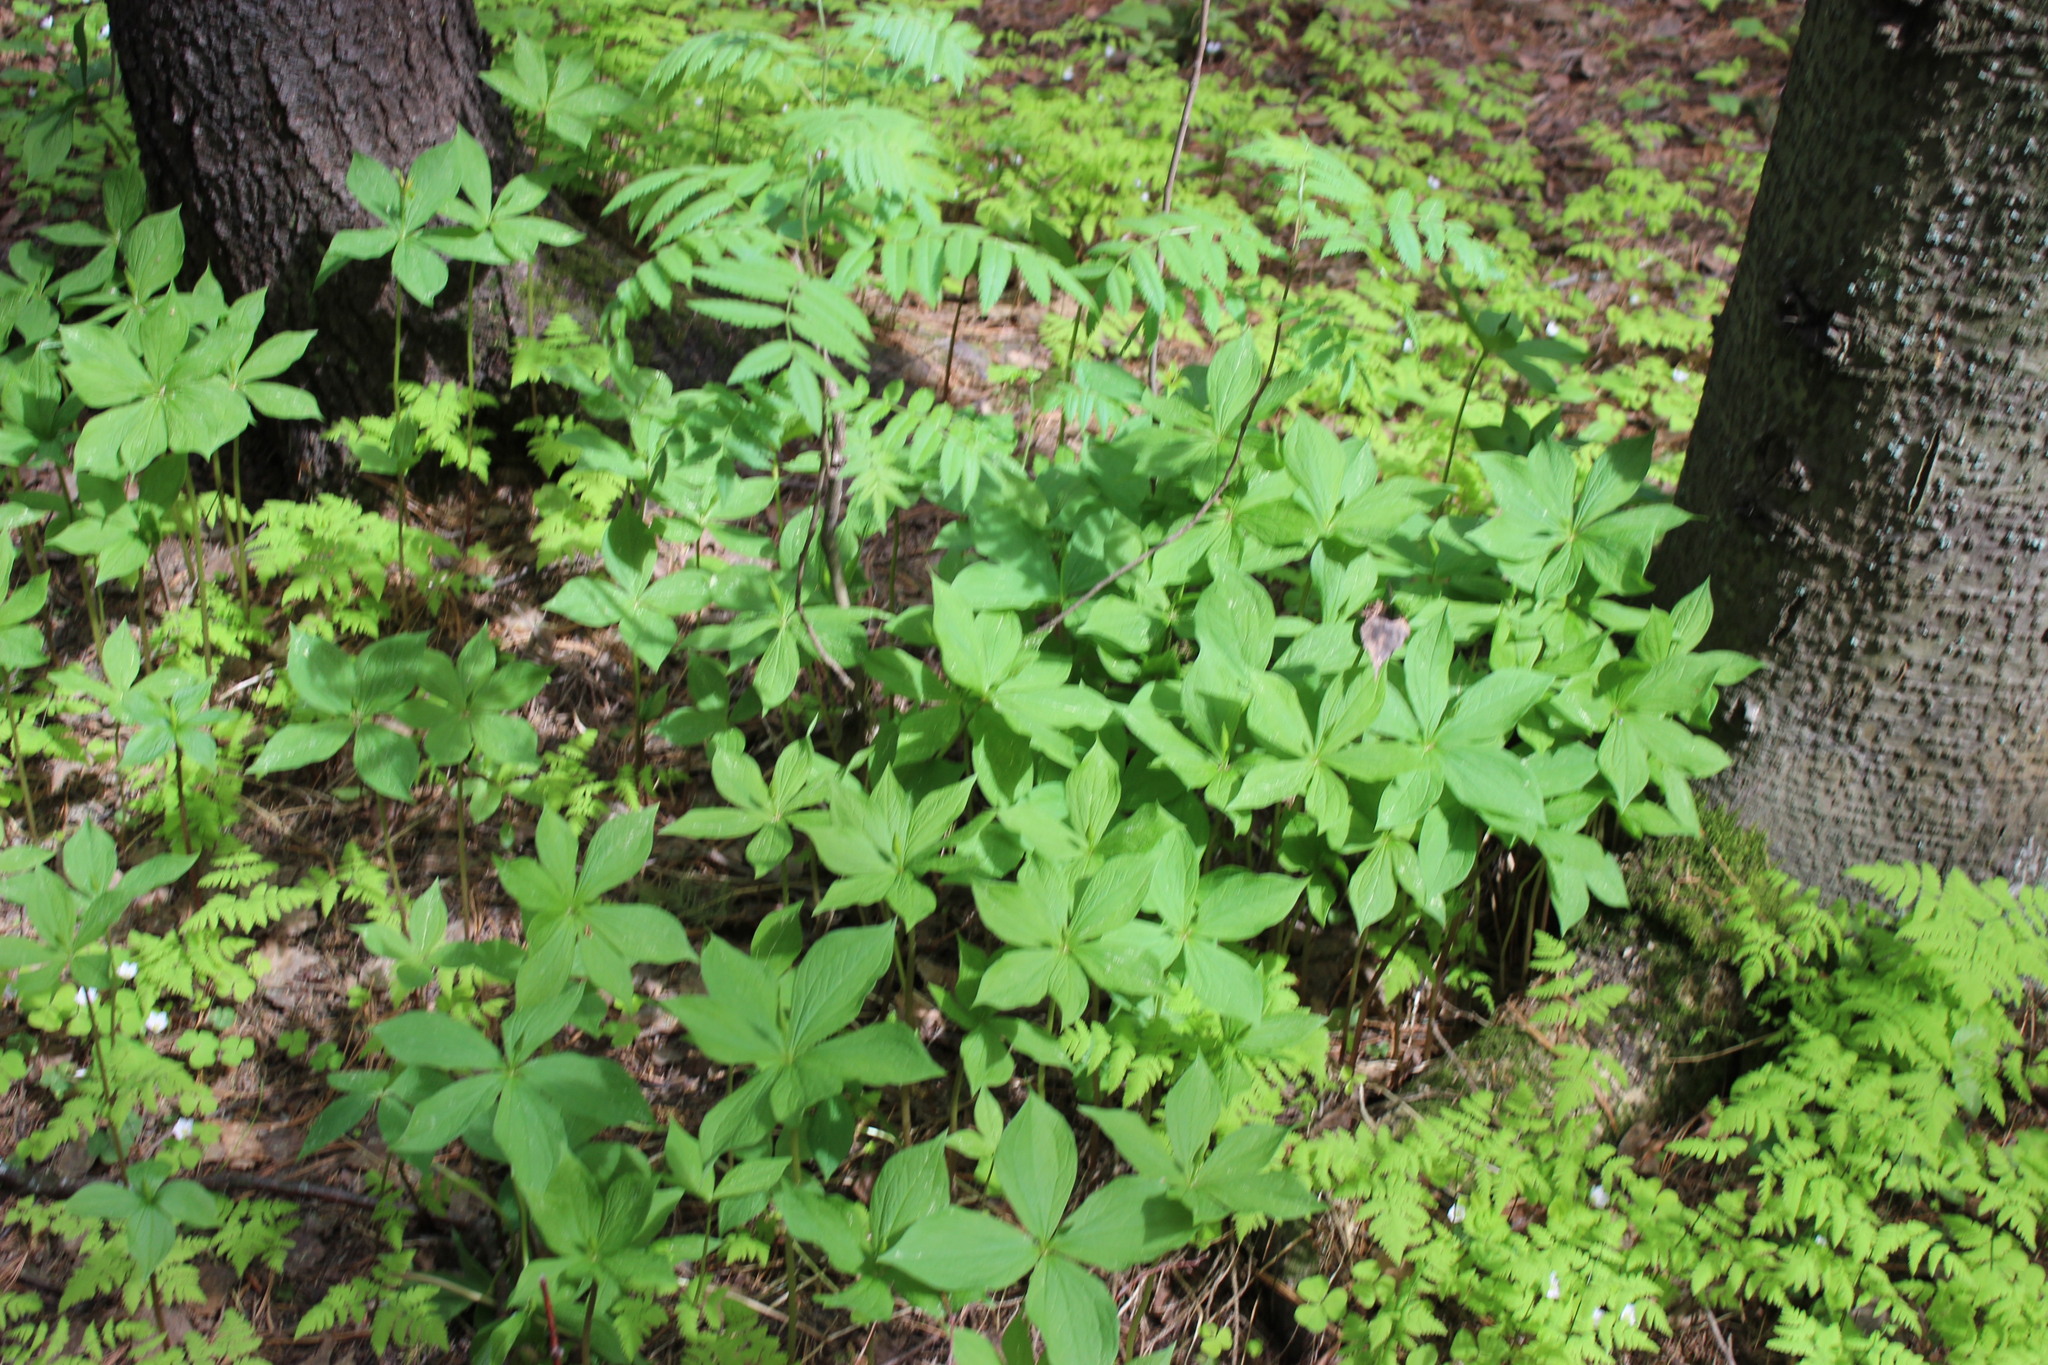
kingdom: Plantae
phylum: Tracheophyta
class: Liliopsida
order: Liliales
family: Melanthiaceae
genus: Paris
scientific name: Paris quadrifolia
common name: Herb-paris
